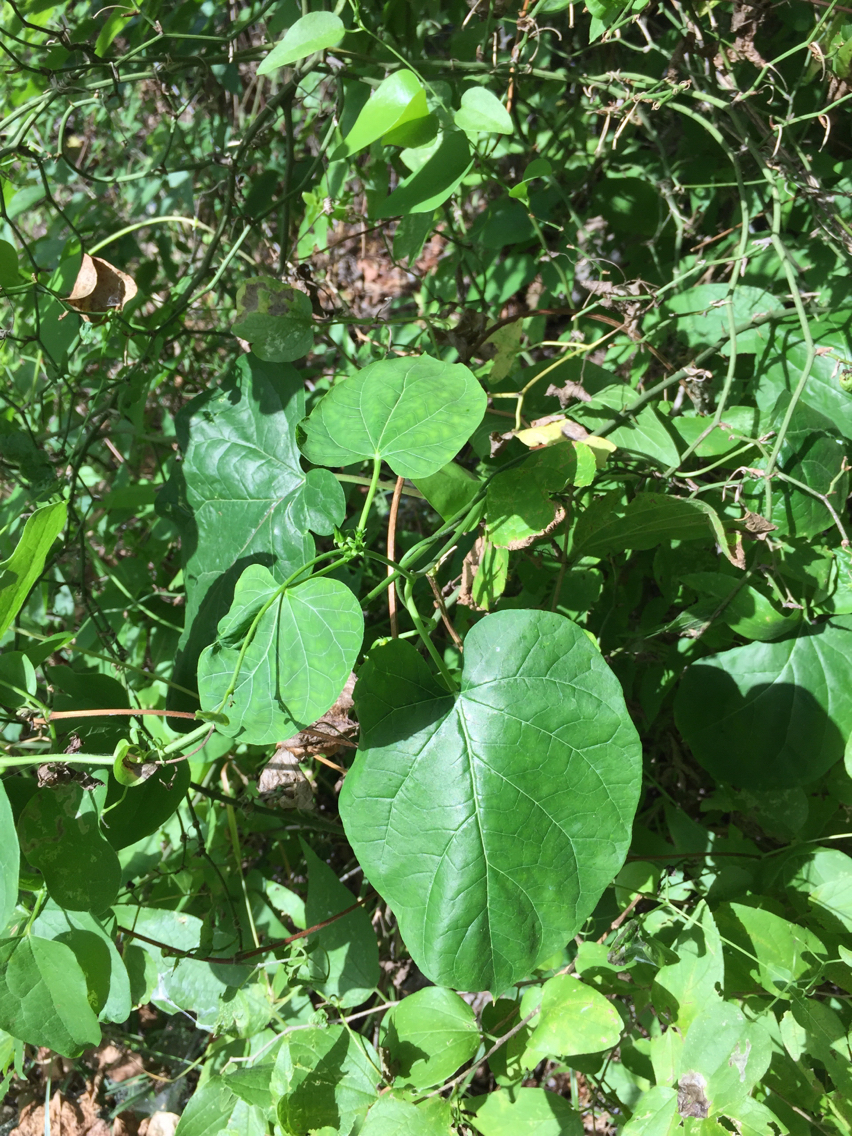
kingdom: Plantae
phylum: Tracheophyta
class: Magnoliopsida
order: Gentianales
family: Apocynaceae
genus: Gonolobus
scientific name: Gonolobus suberosus
